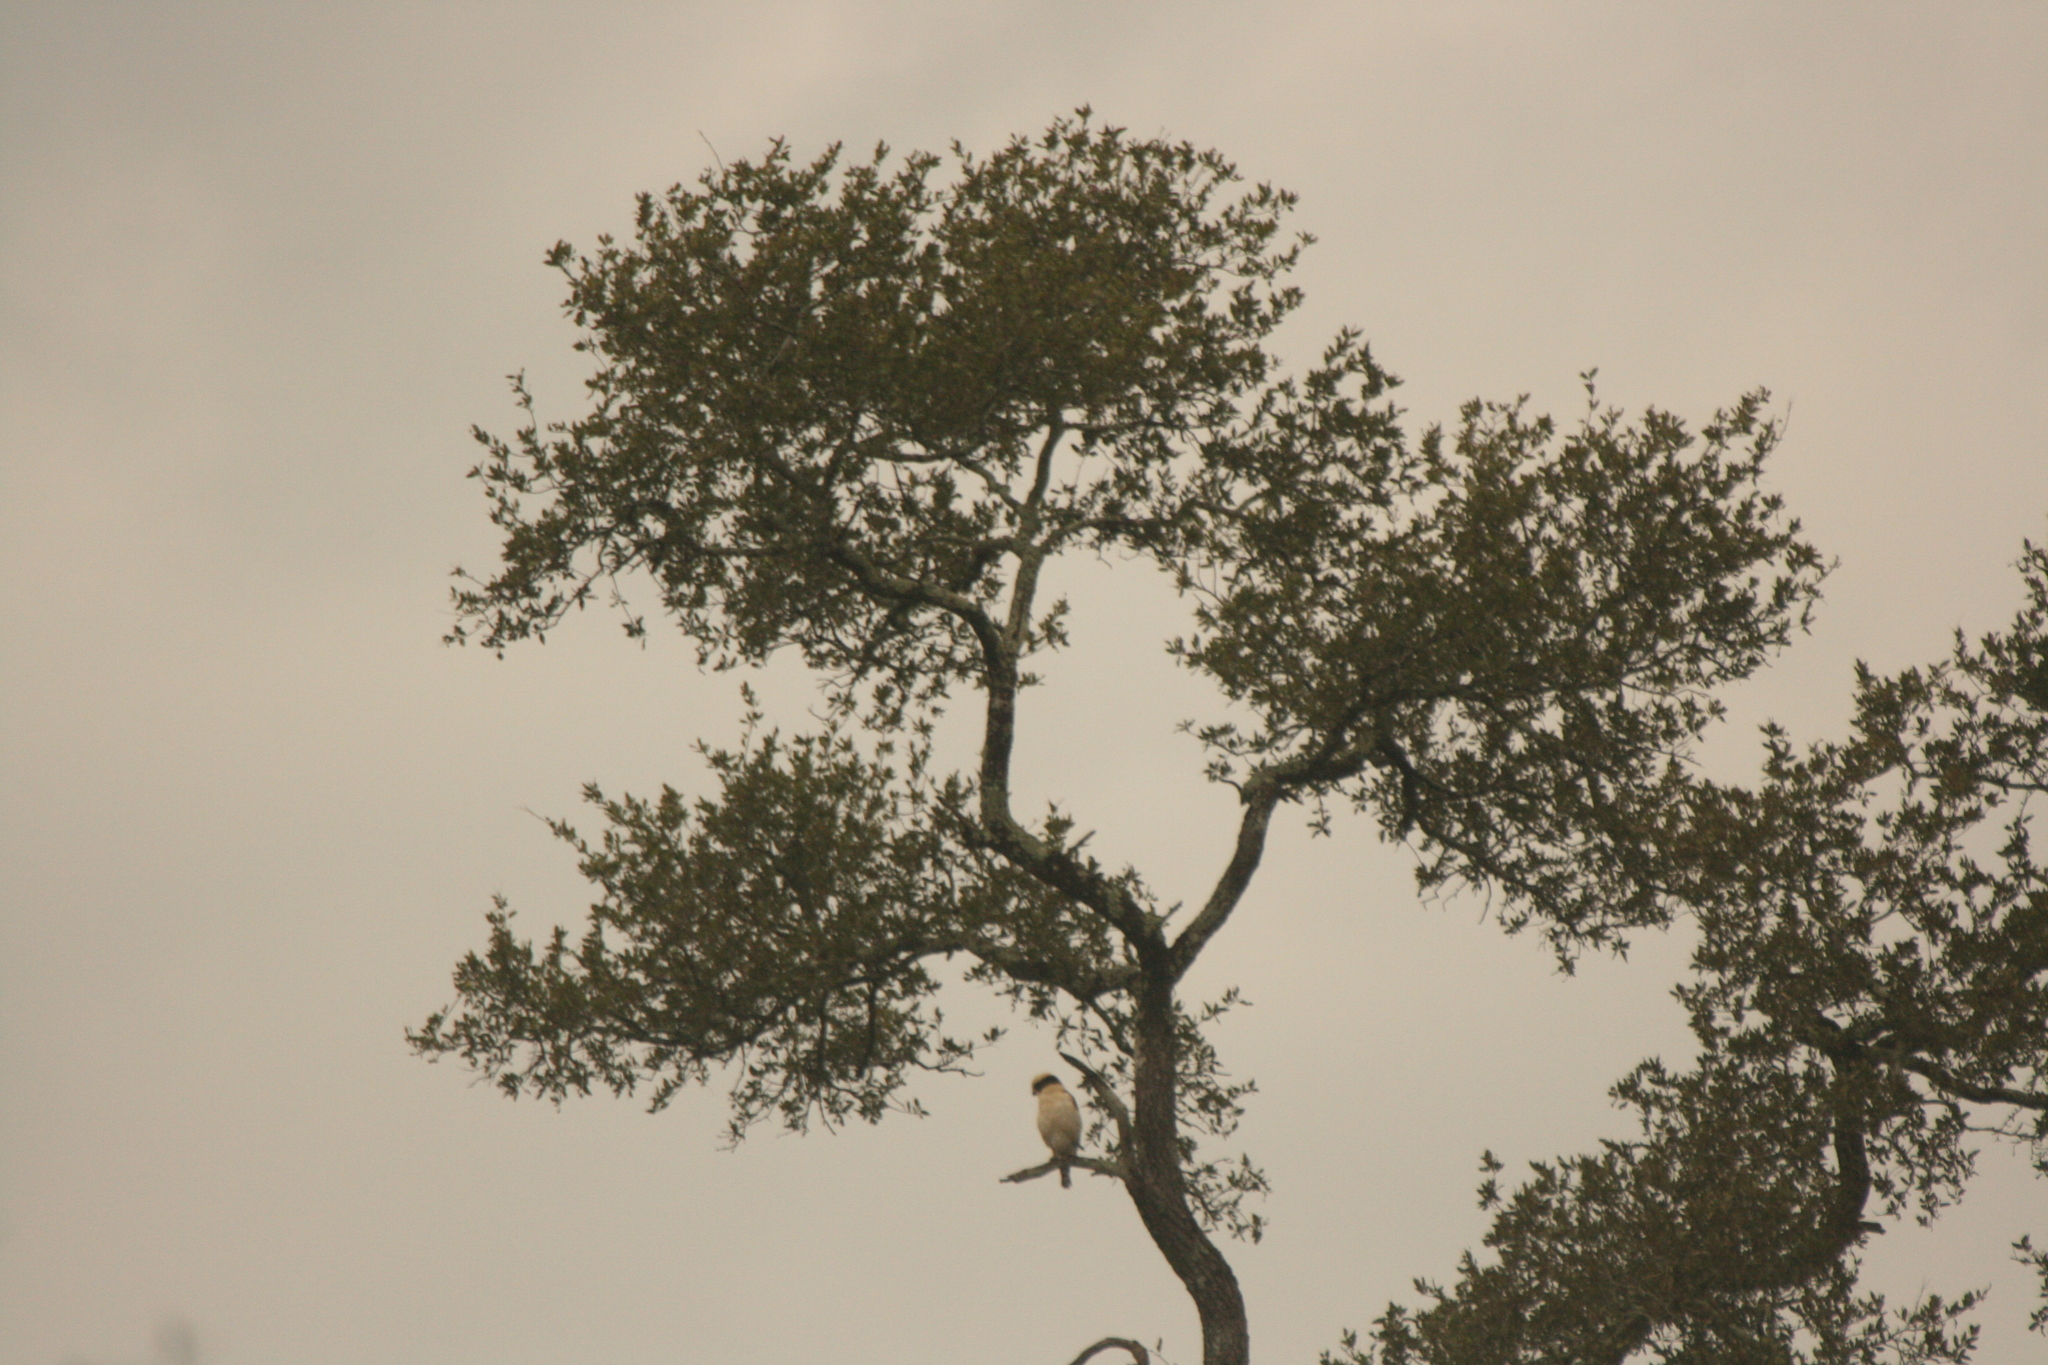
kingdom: Animalia
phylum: Chordata
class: Aves
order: Falconiformes
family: Falconidae
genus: Herpetotheres
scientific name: Herpetotheres cachinnans
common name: Laughing falcon
